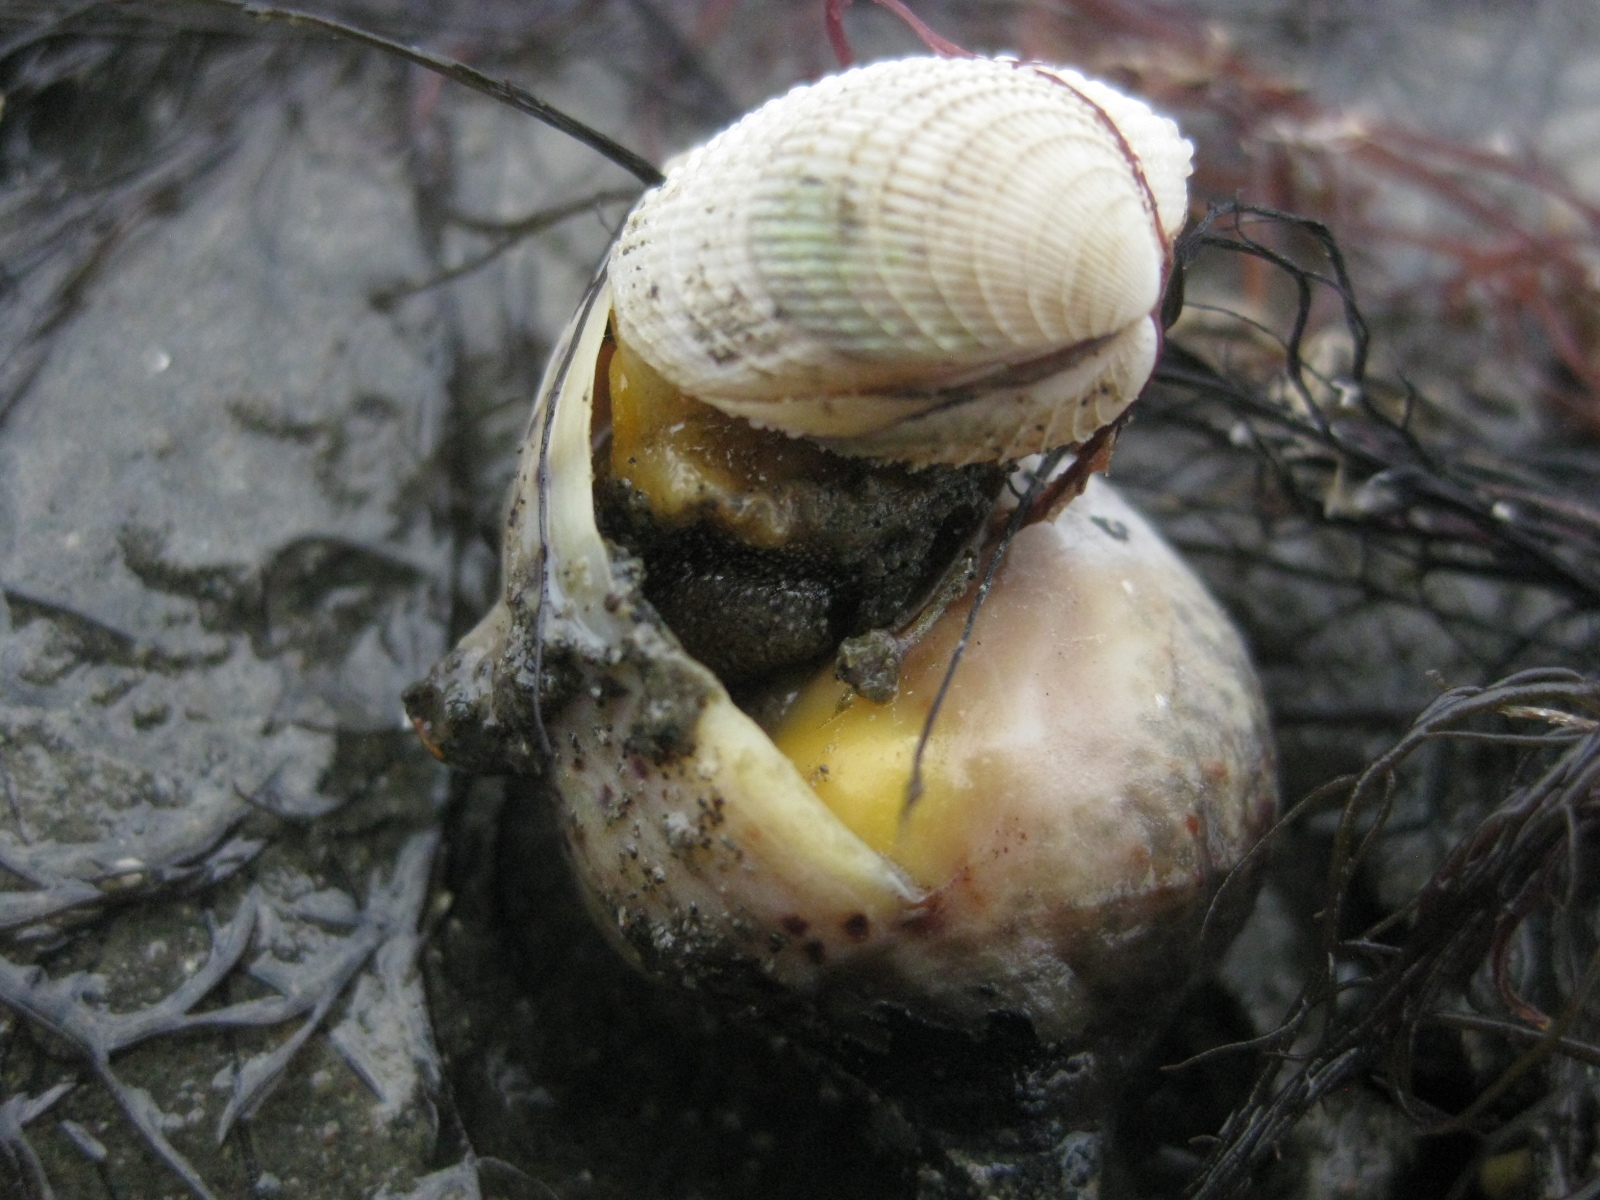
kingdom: Animalia
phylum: Mollusca
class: Gastropoda
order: Neogastropoda
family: Cominellidae
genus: Cominella
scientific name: Cominella adspersa
